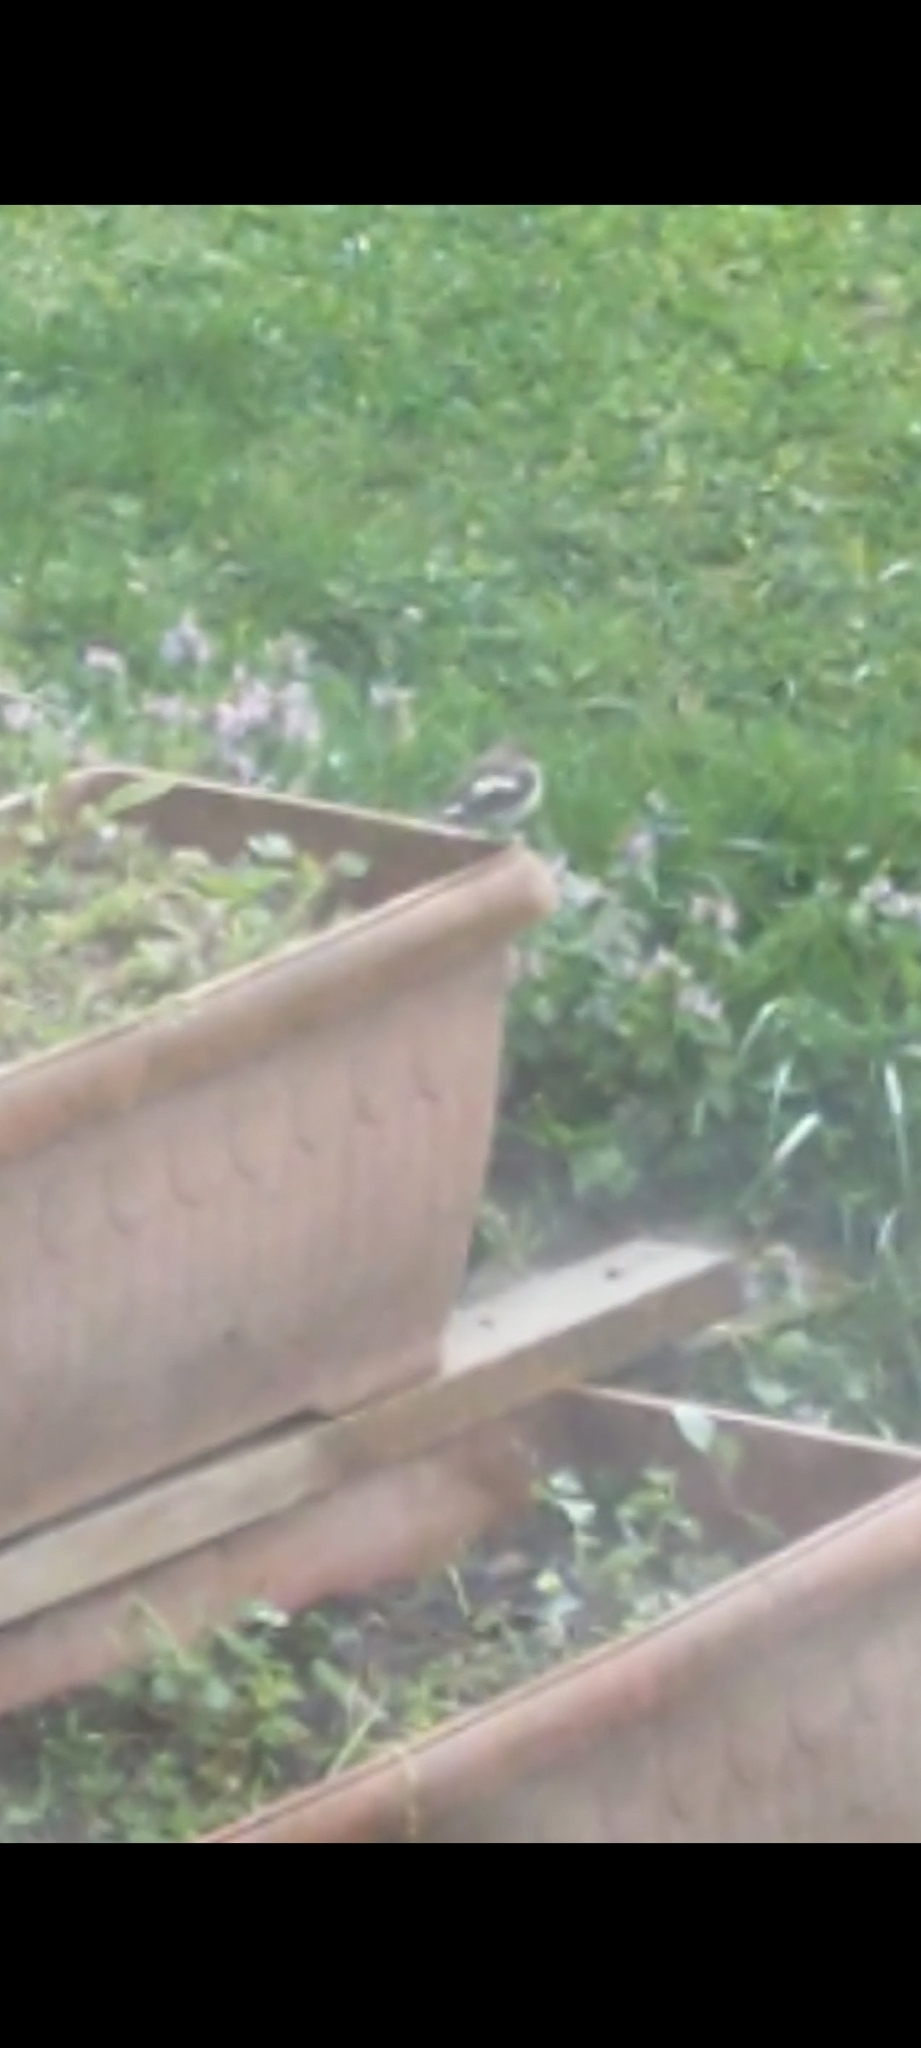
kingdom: Animalia
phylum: Chordata
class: Aves
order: Passeriformes
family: Fringillidae
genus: Fringilla
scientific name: Fringilla coelebs
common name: Common chaffinch
